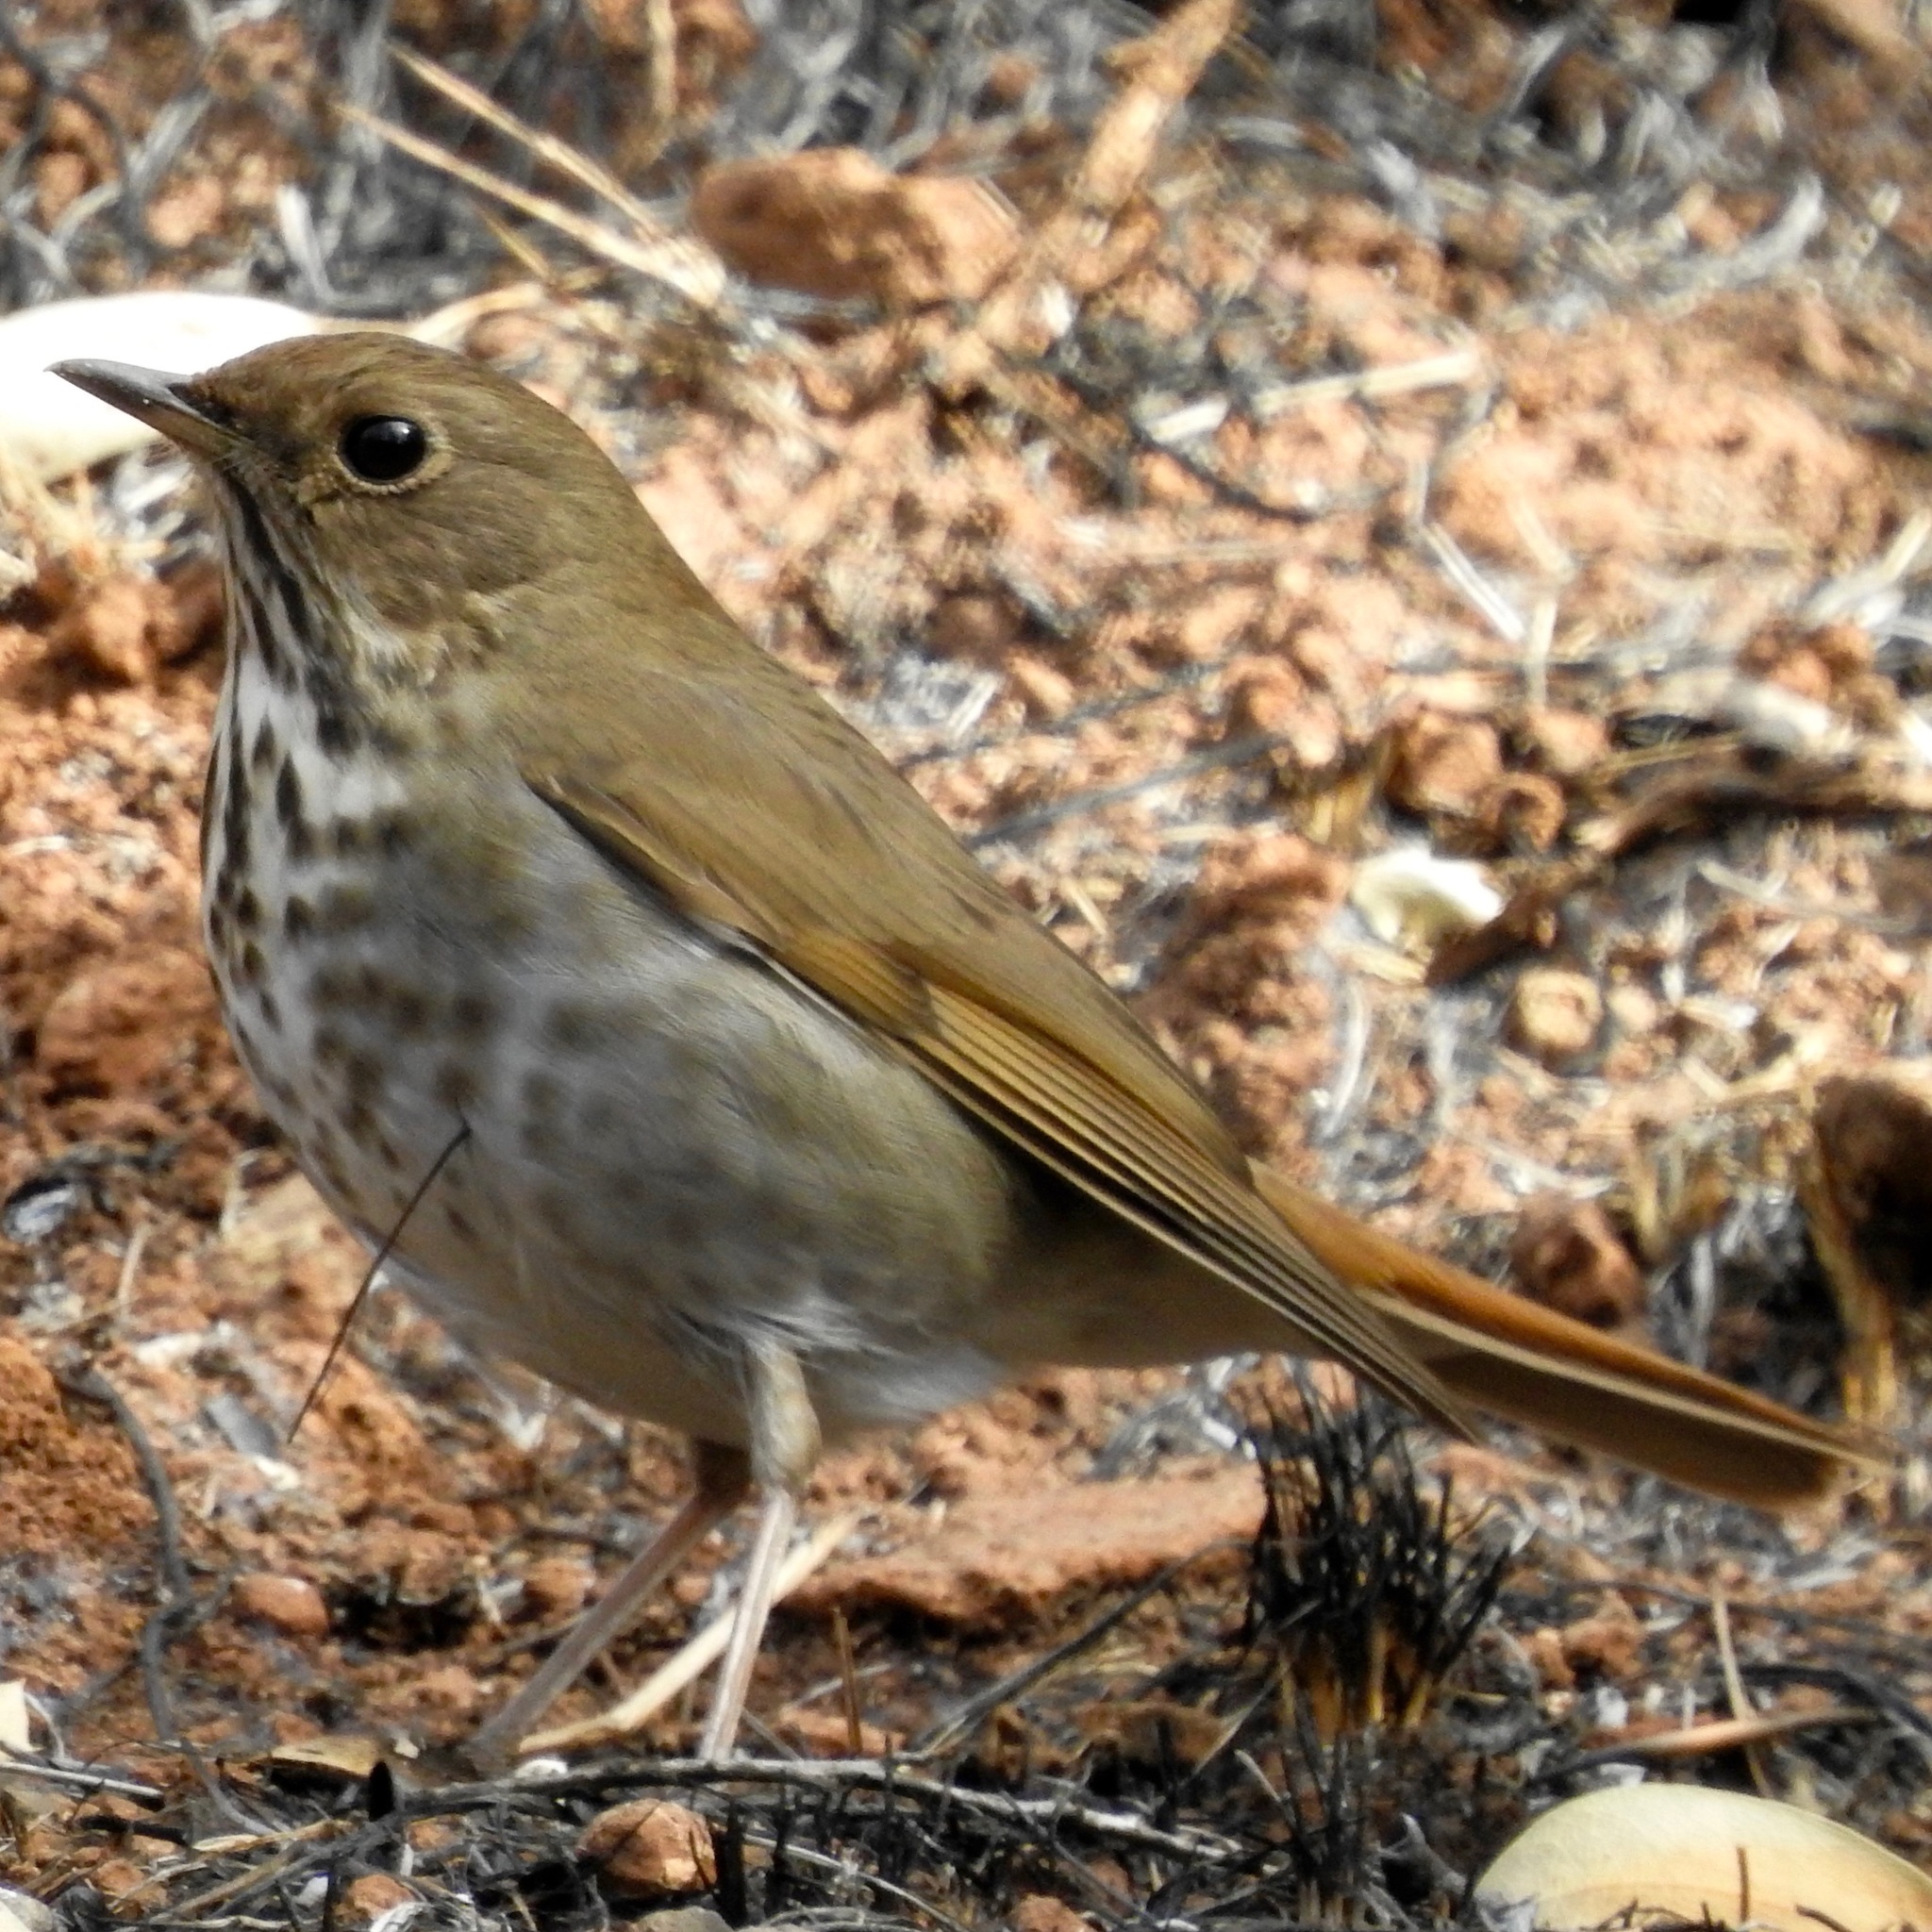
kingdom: Animalia
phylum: Chordata
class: Aves
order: Passeriformes
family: Turdidae
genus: Catharus
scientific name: Catharus guttatus
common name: Hermit thrush
